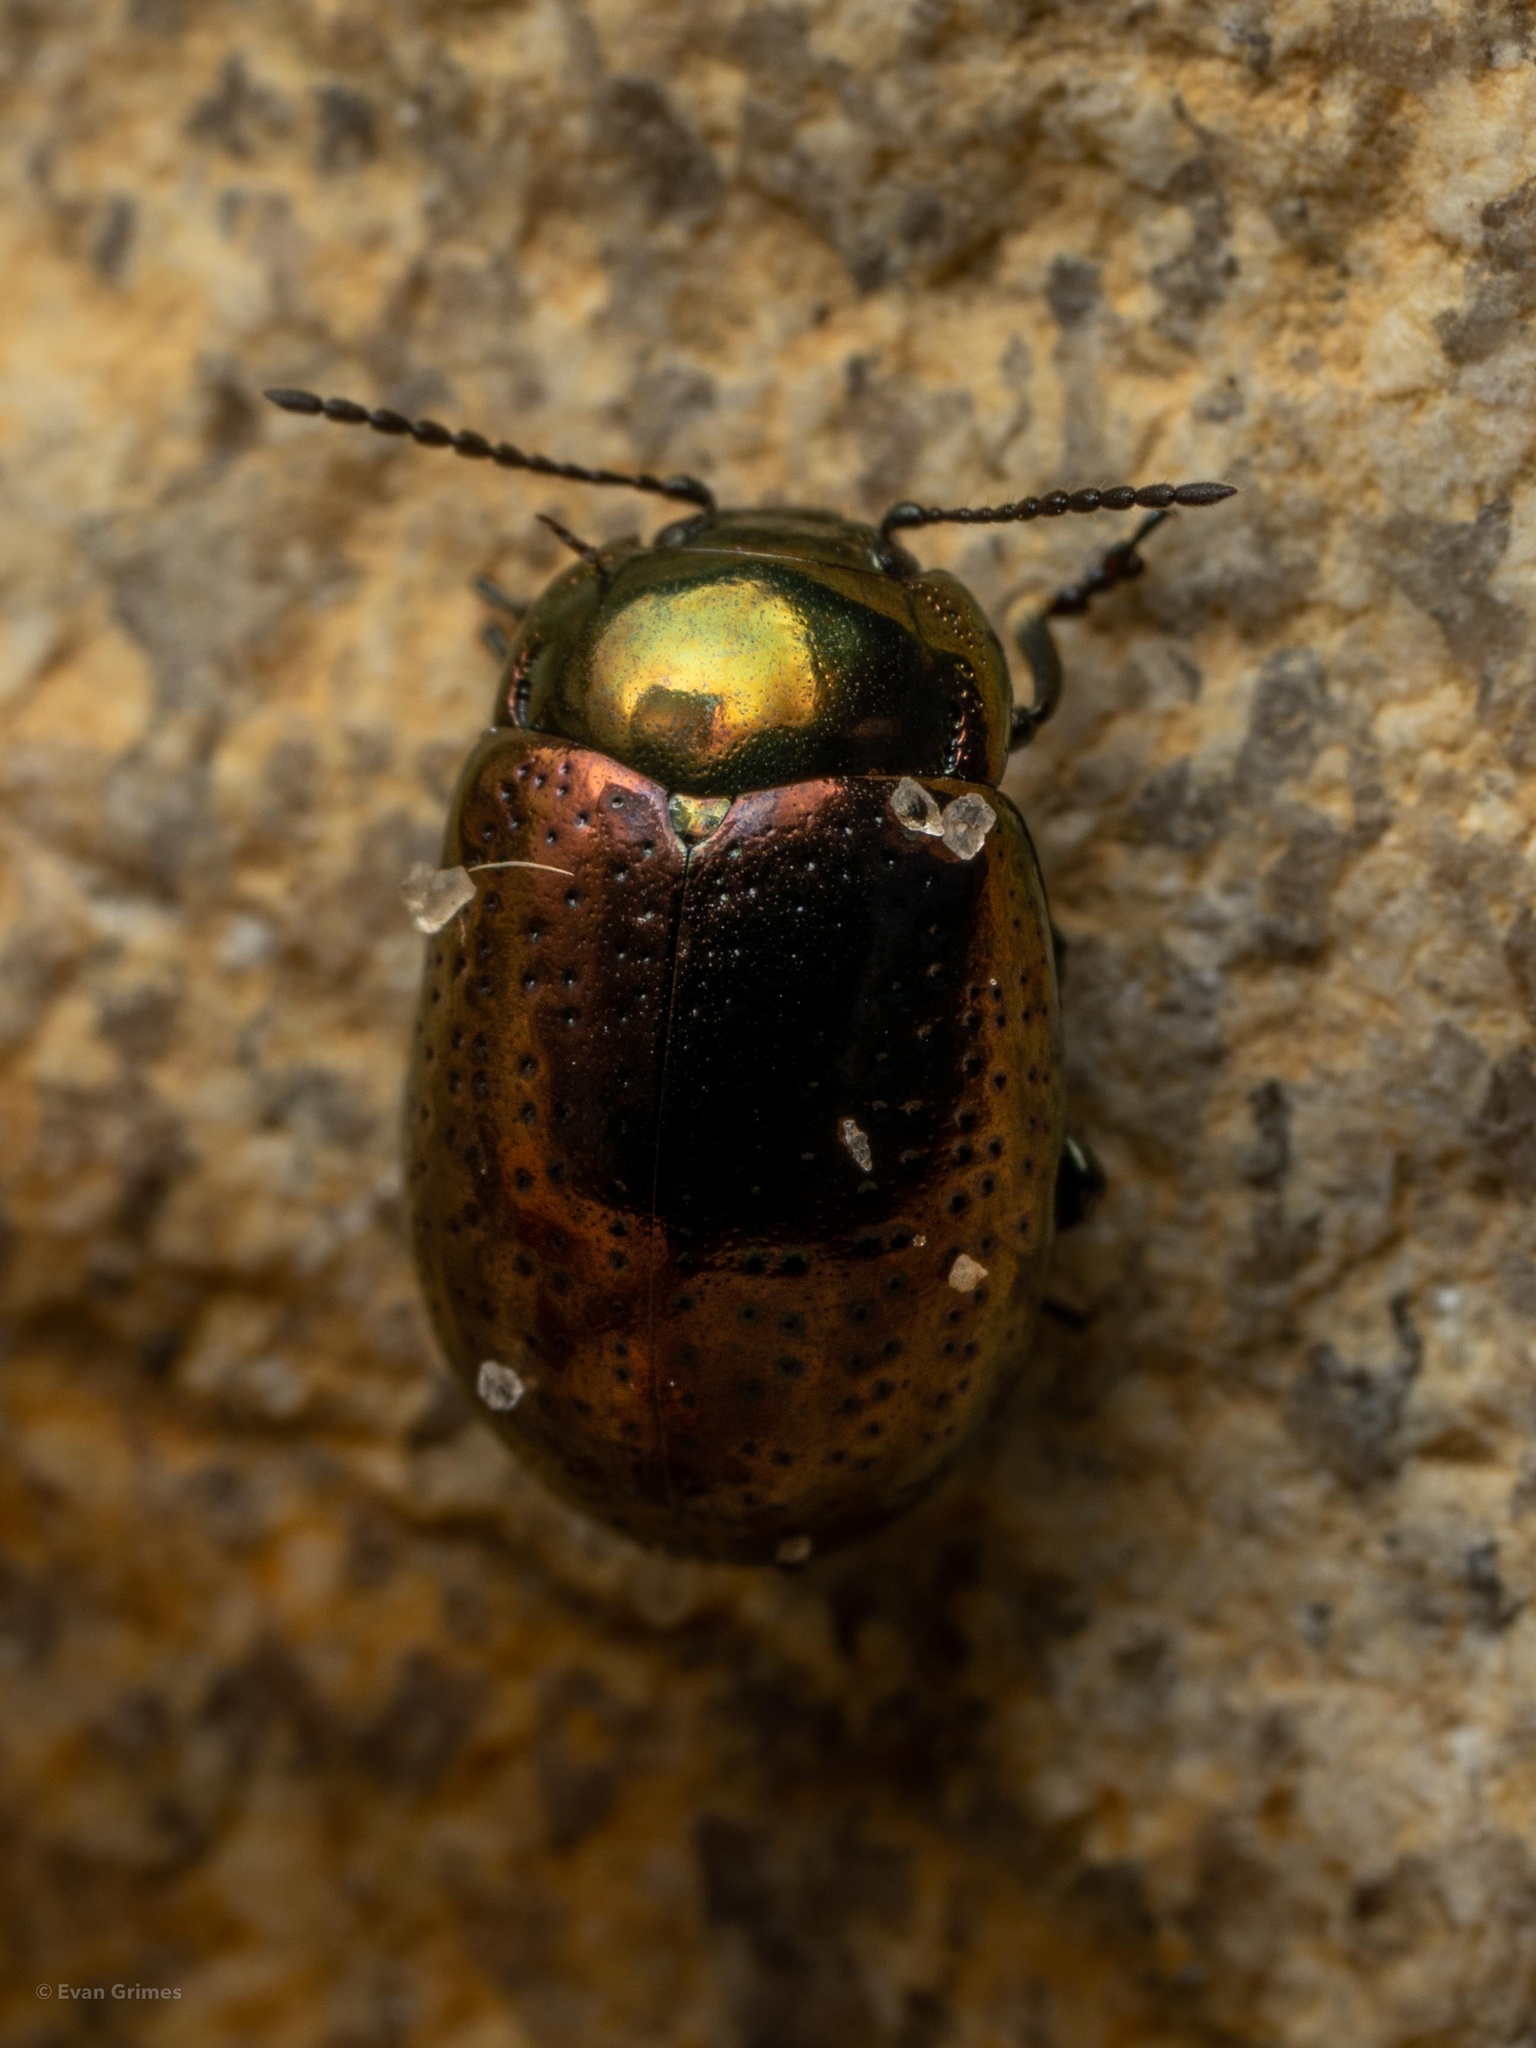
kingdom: Animalia
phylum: Arthropoda
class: Insecta
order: Coleoptera
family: Chrysomelidae
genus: Chrysolina
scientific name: Chrysolina hyperici
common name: St. johnswort beetle
